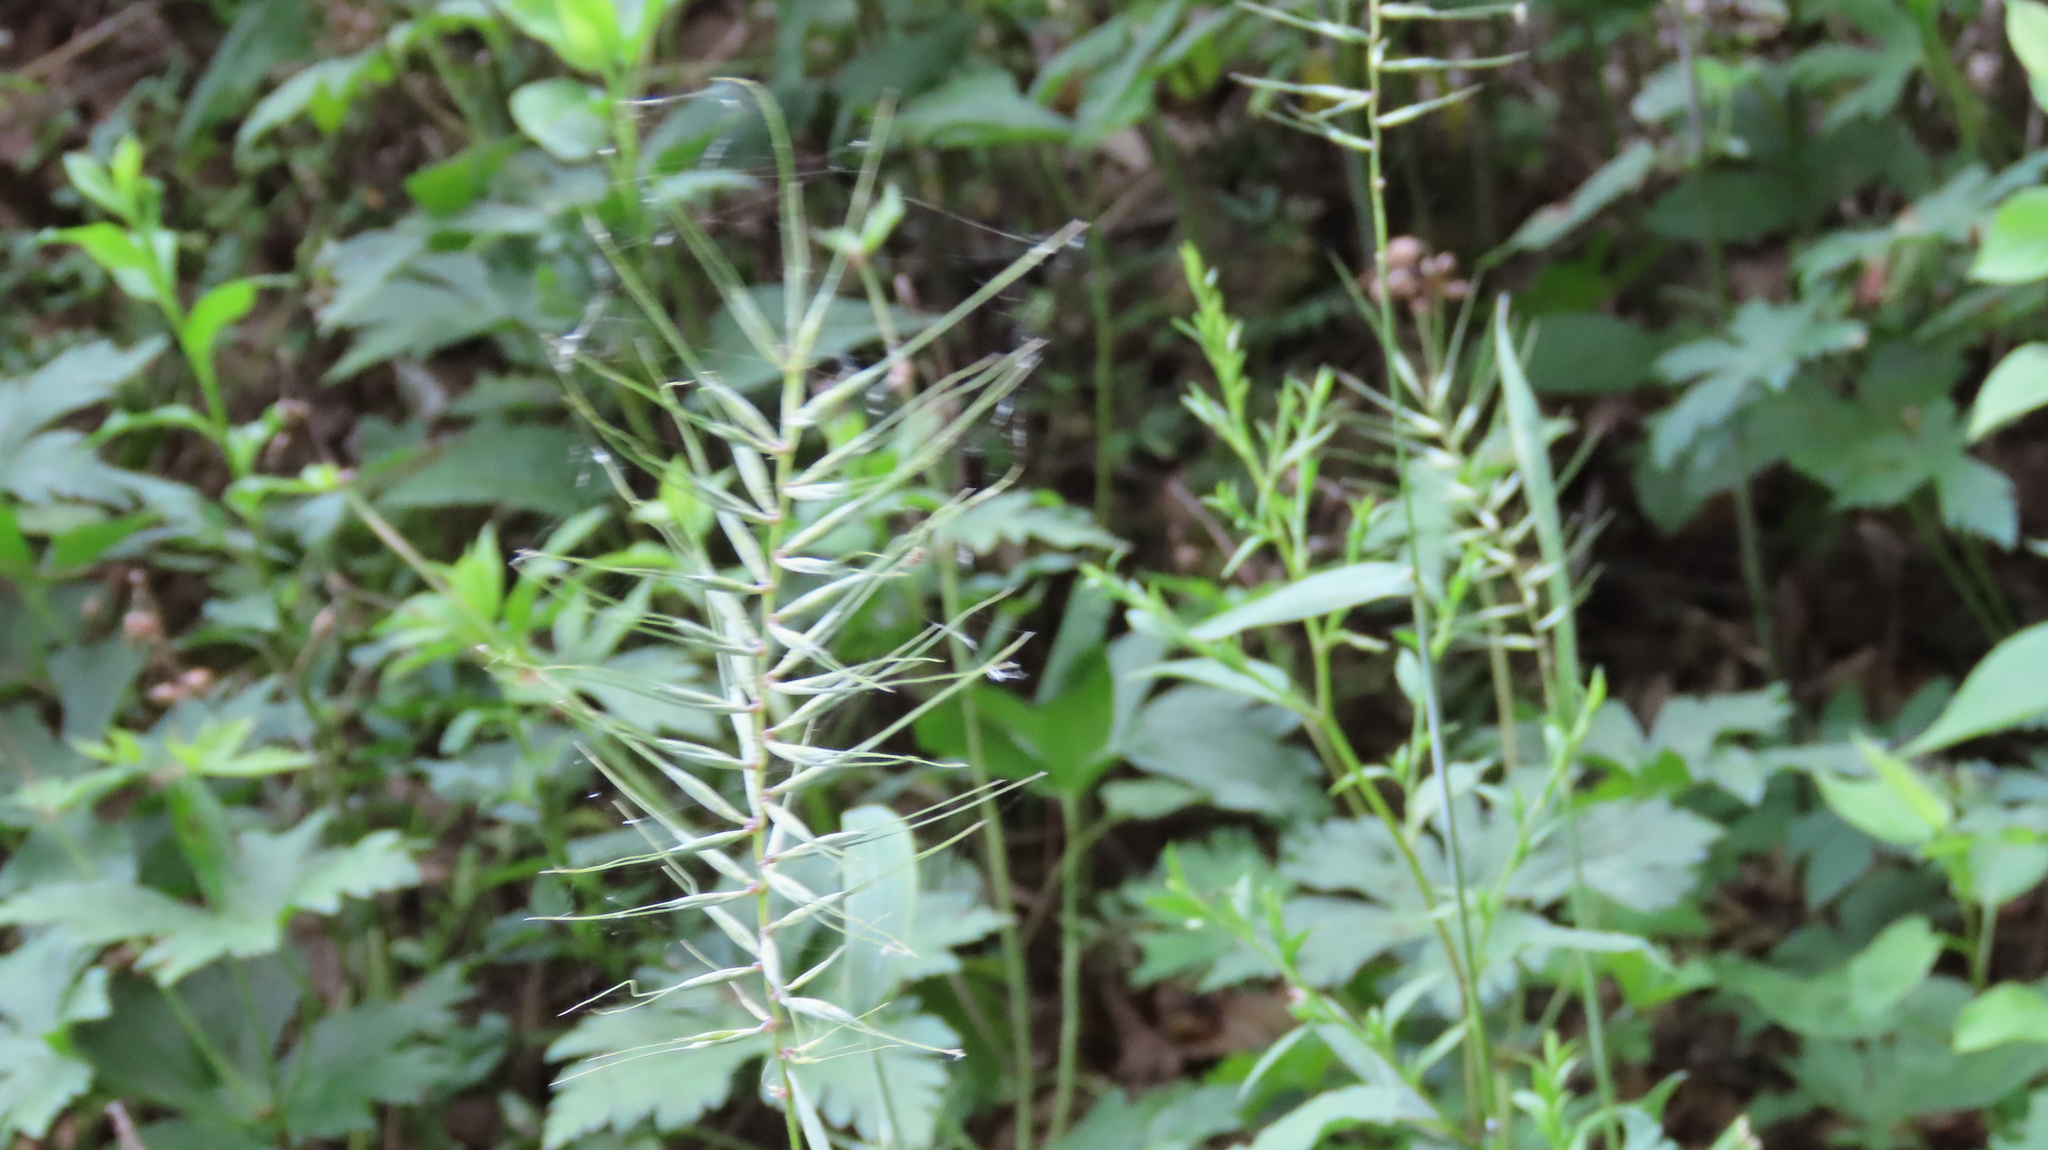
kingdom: Plantae
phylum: Tracheophyta
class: Liliopsida
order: Poales
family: Poaceae
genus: Elymus
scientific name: Elymus hystrix
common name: Bottlebrush grass
